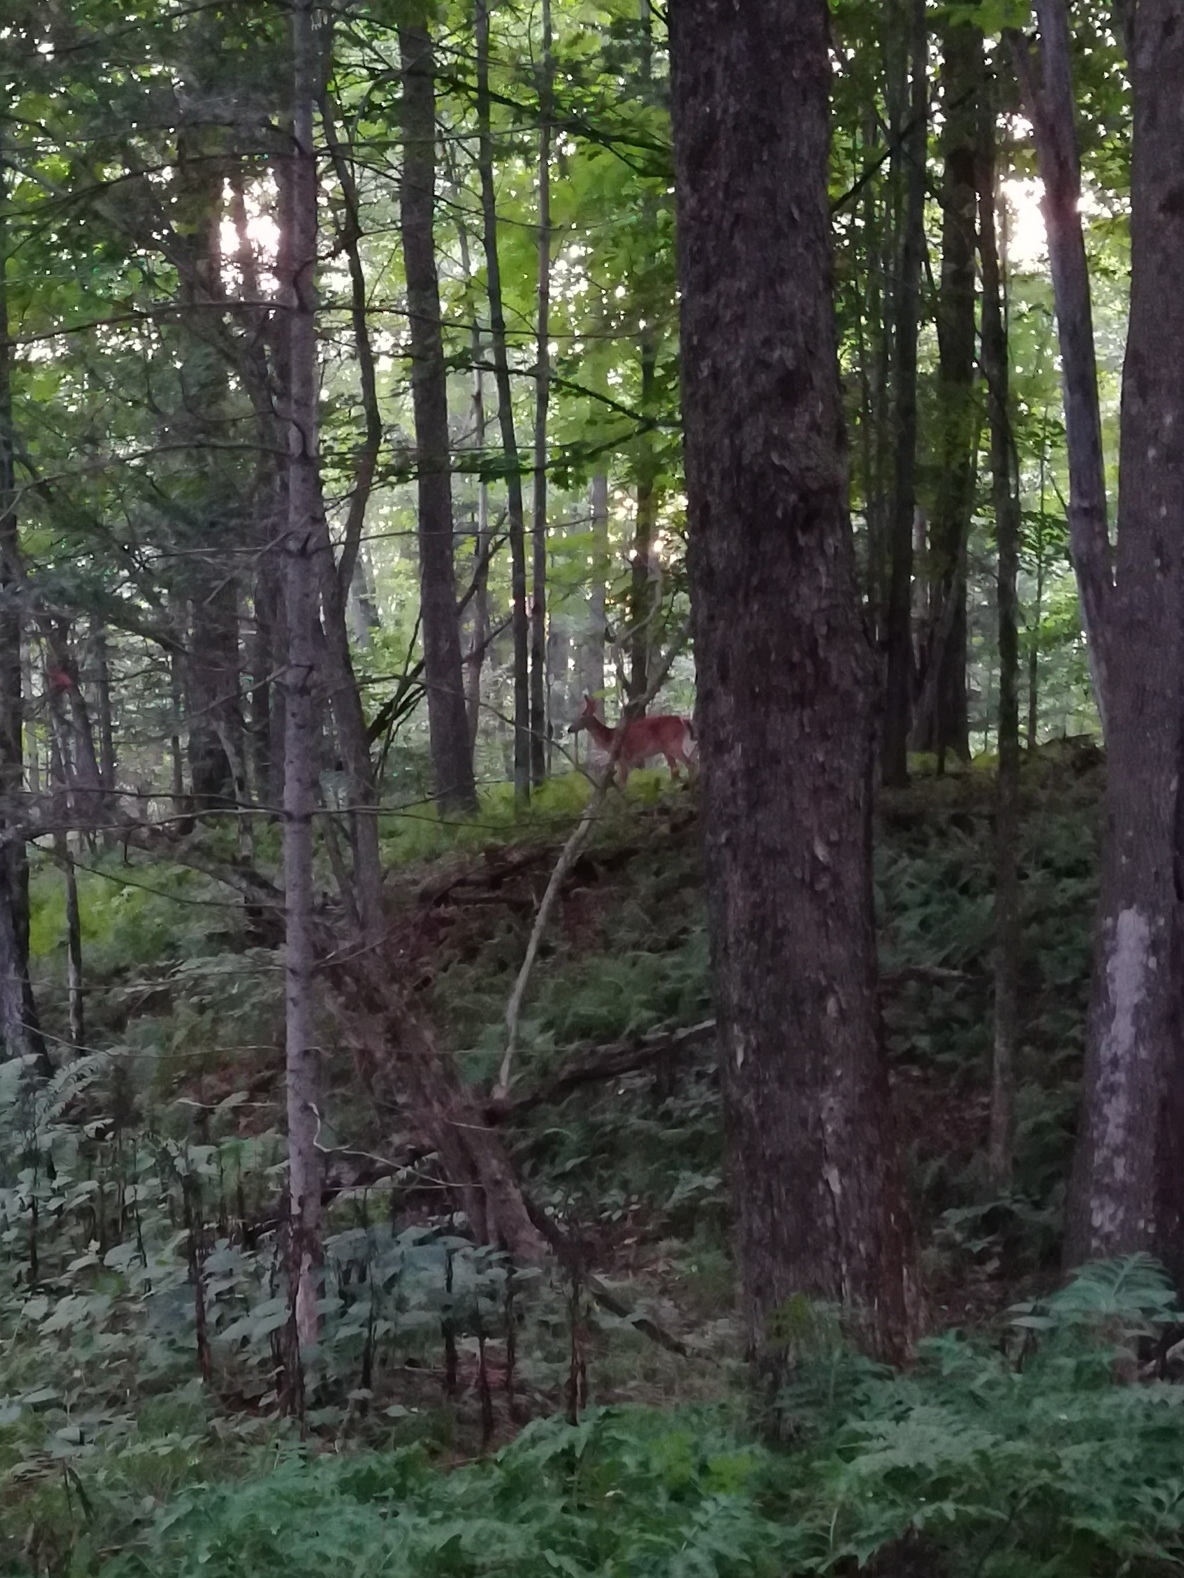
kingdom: Animalia
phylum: Chordata
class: Mammalia
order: Artiodactyla
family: Cervidae
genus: Odocoileus
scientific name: Odocoileus virginianus
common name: White-tailed deer
